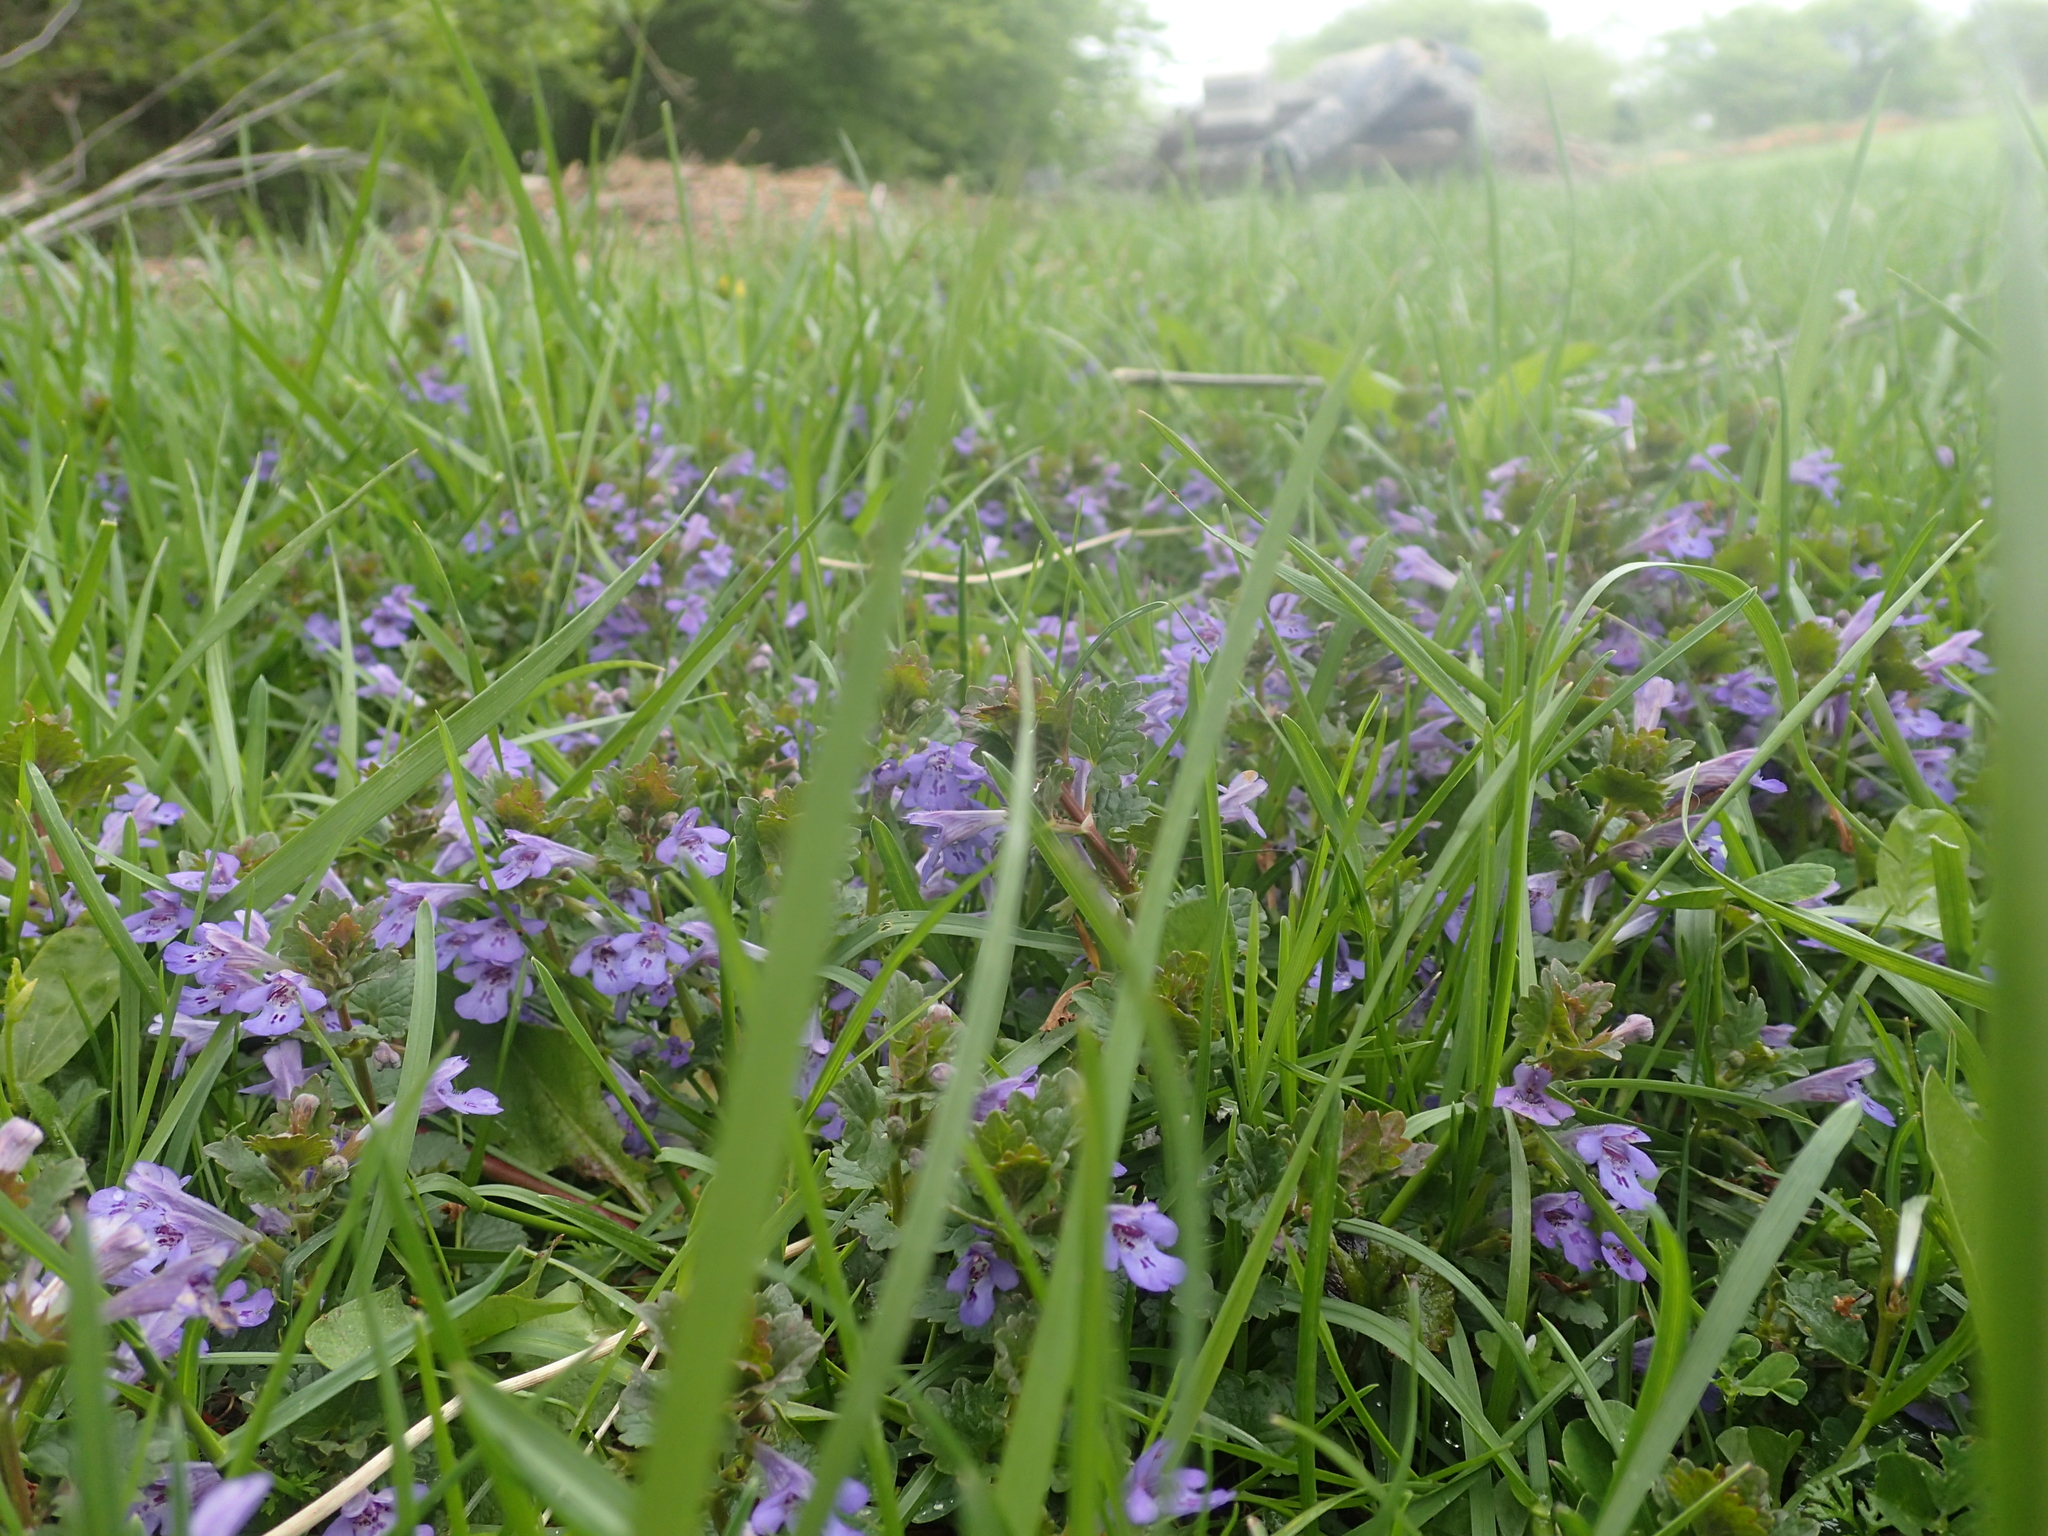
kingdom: Plantae
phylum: Tracheophyta
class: Magnoliopsida
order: Lamiales
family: Lamiaceae
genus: Glechoma
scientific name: Glechoma hederacea
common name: Ground ivy
